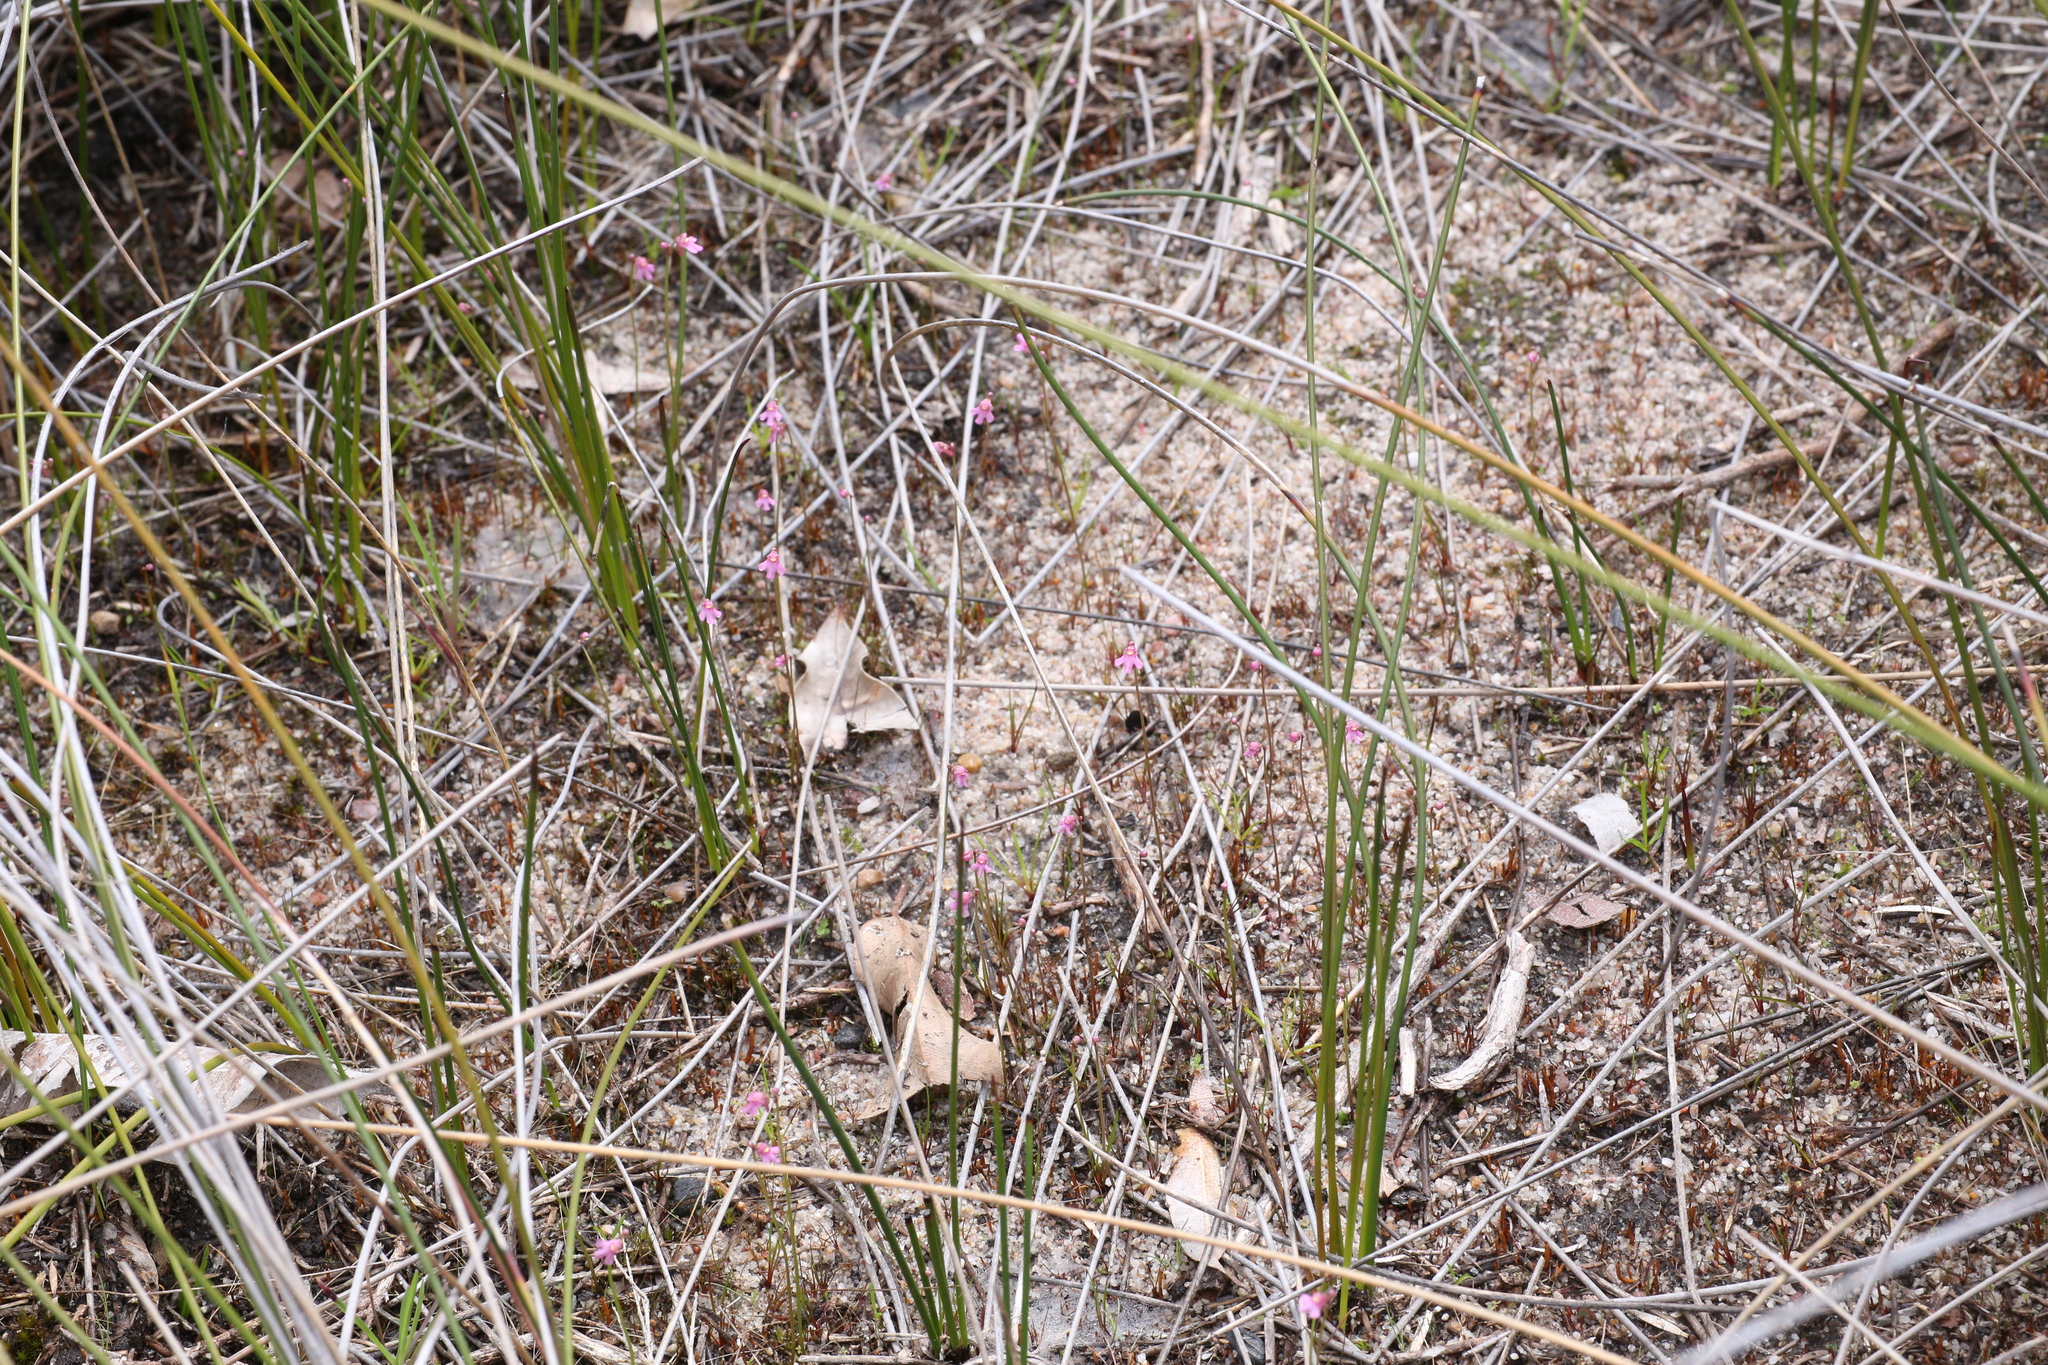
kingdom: Plantae
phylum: Tracheophyta
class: Magnoliopsida
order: Lamiales
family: Lentibulariaceae
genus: Utricularia
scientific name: Utricularia tenella
